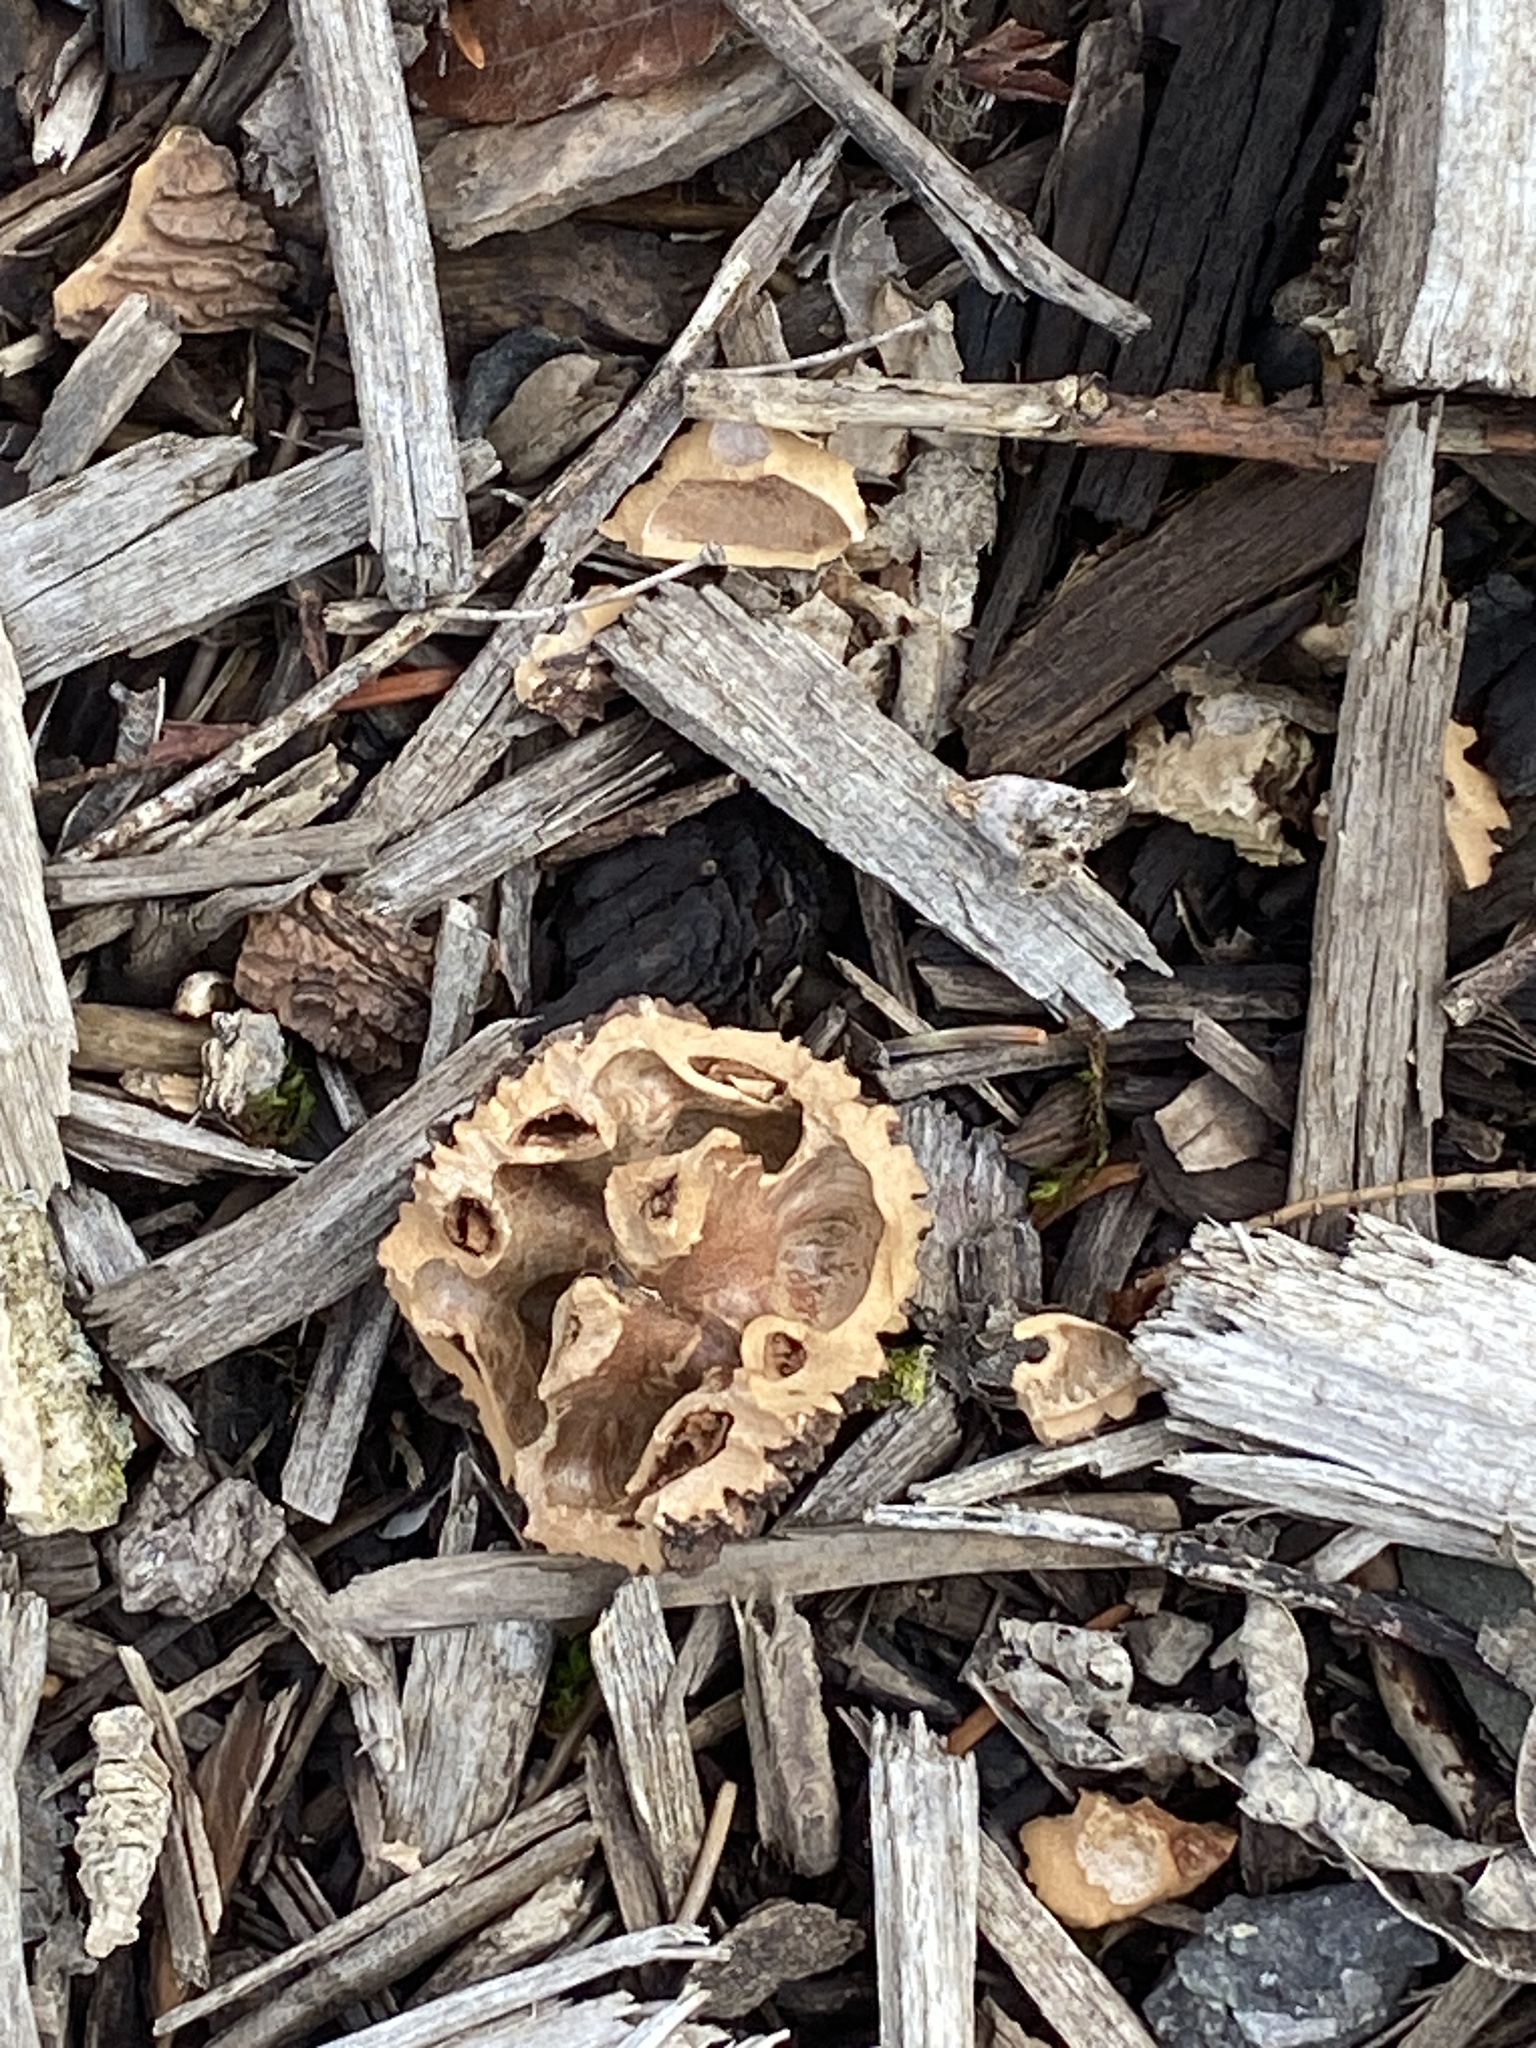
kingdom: Plantae
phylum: Tracheophyta
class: Magnoliopsida
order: Fagales
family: Juglandaceae
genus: Juglans
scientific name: Juglans nigra
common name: Black walnut
